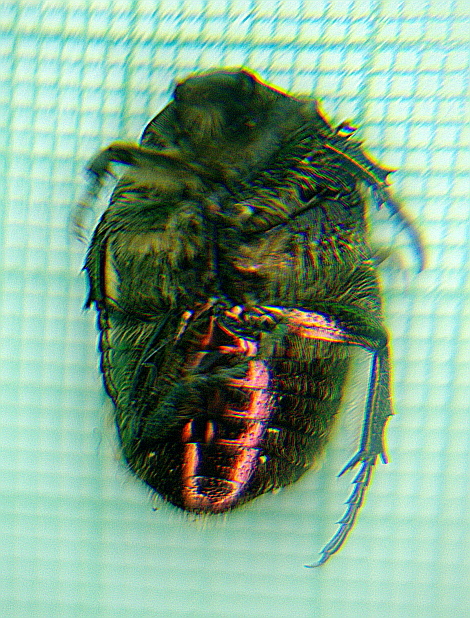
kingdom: Animalia
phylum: Arthropoda
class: Insecta
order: Coleoptera
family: Scarabaeidae
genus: Cetonia
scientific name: Cetonia aurata
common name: Rose chafer
